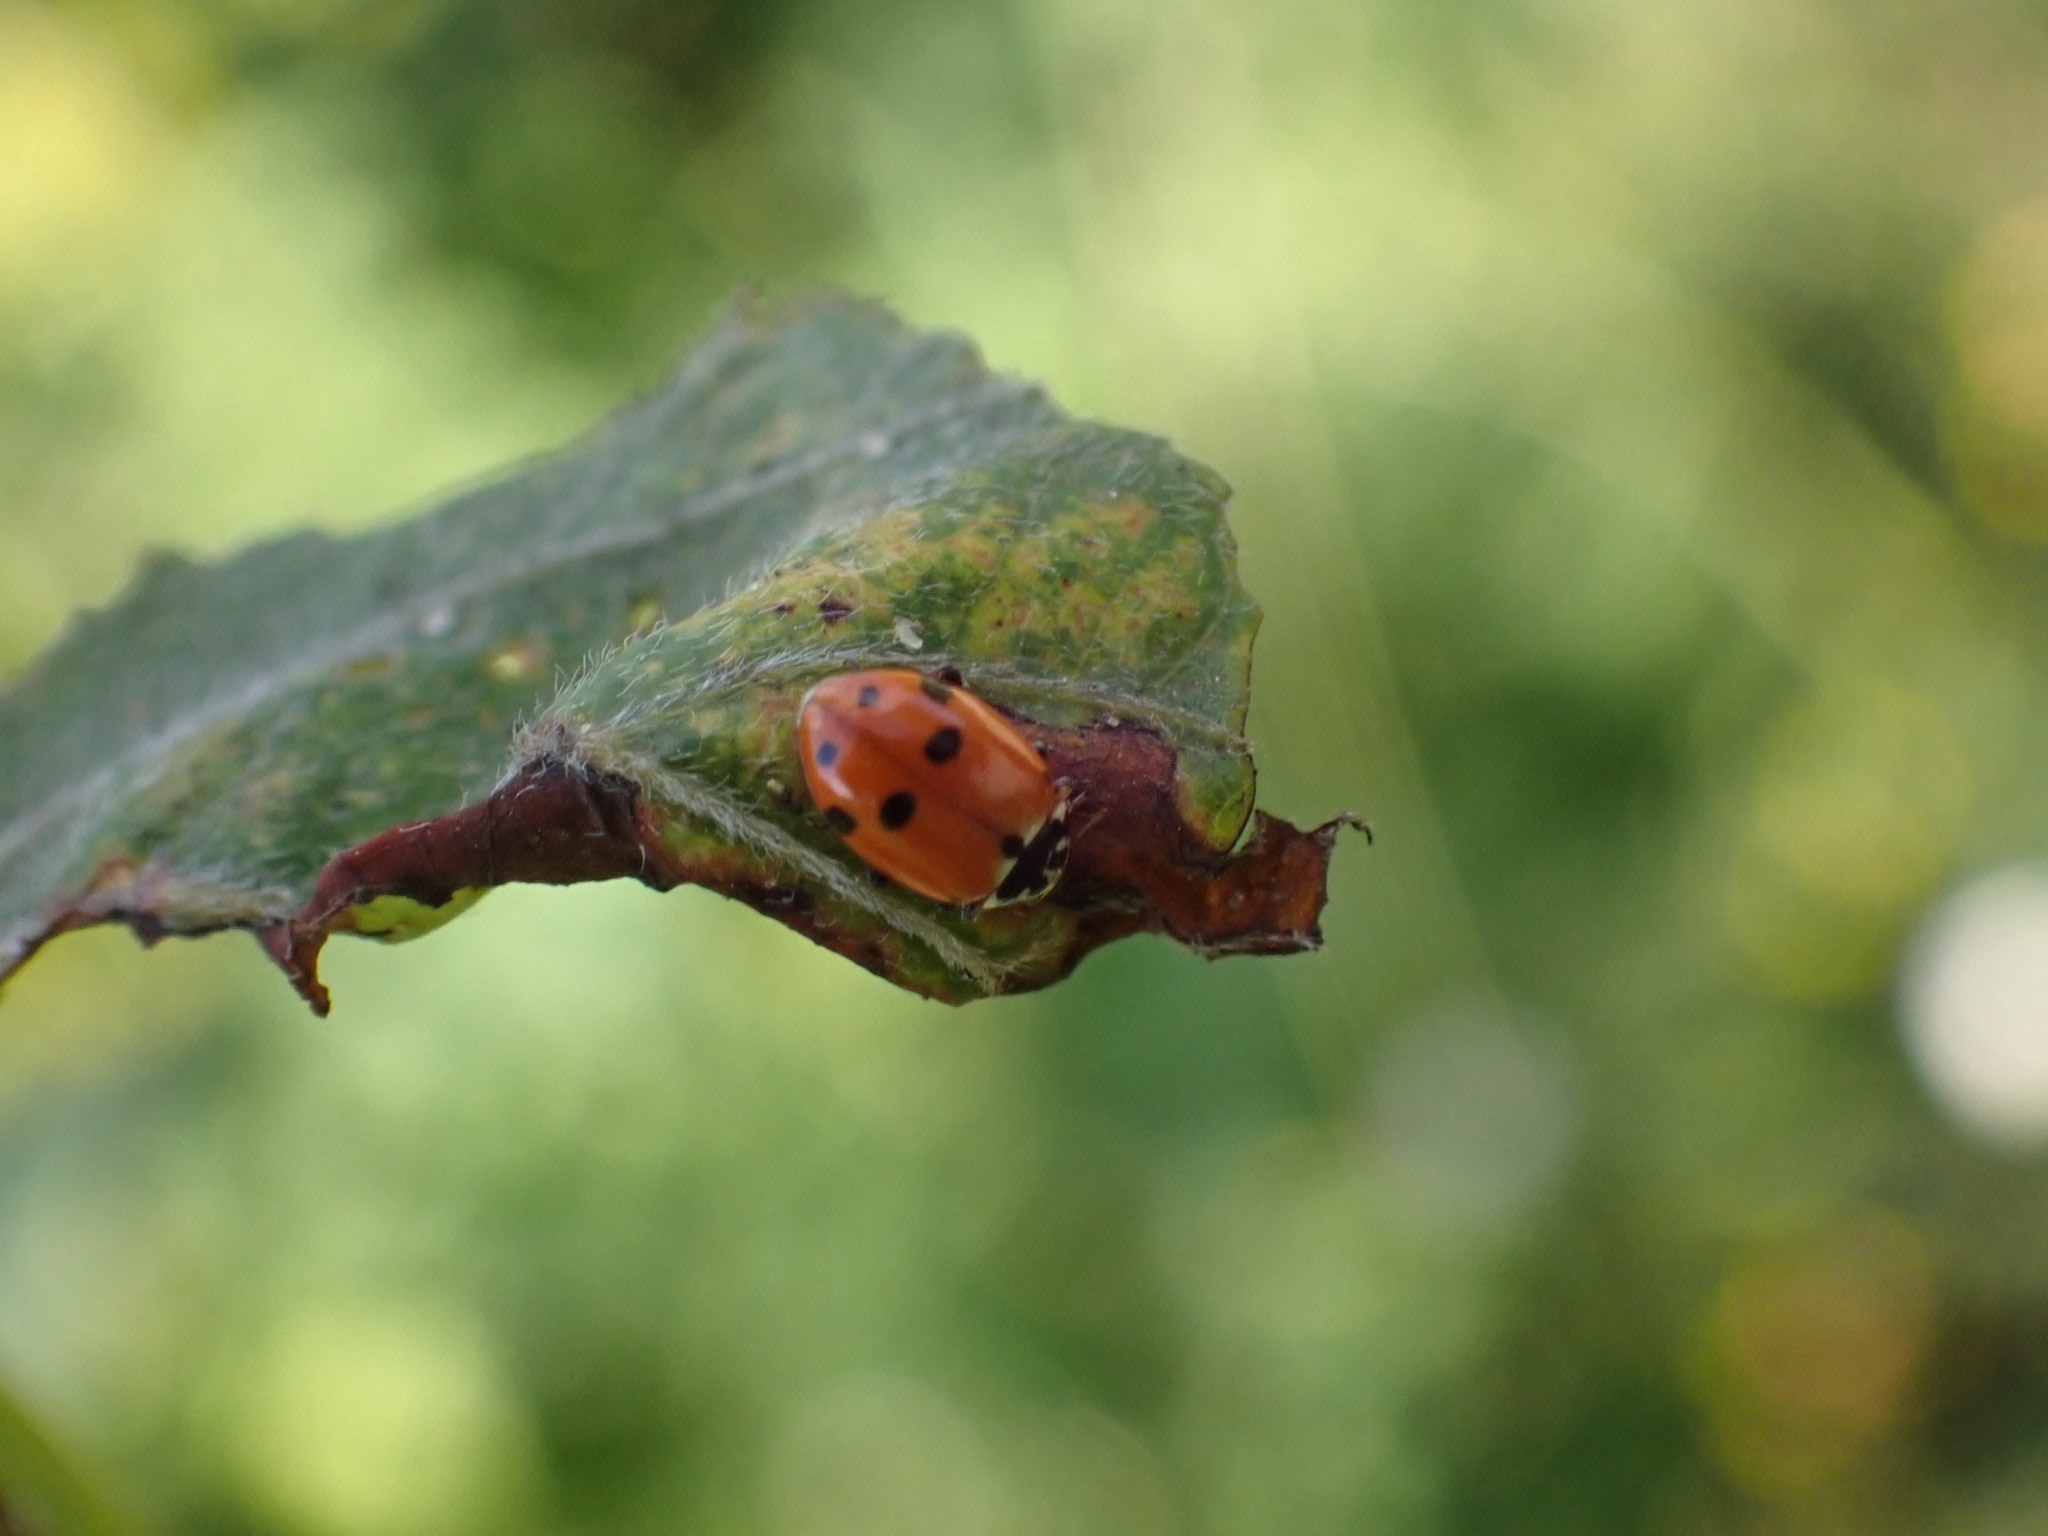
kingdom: Animalia
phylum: Arthropoda
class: Insecta
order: Coleoptera
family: Coccinellidae
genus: Hippodamia
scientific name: Hippodamia variegata
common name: Ladybird beetle
